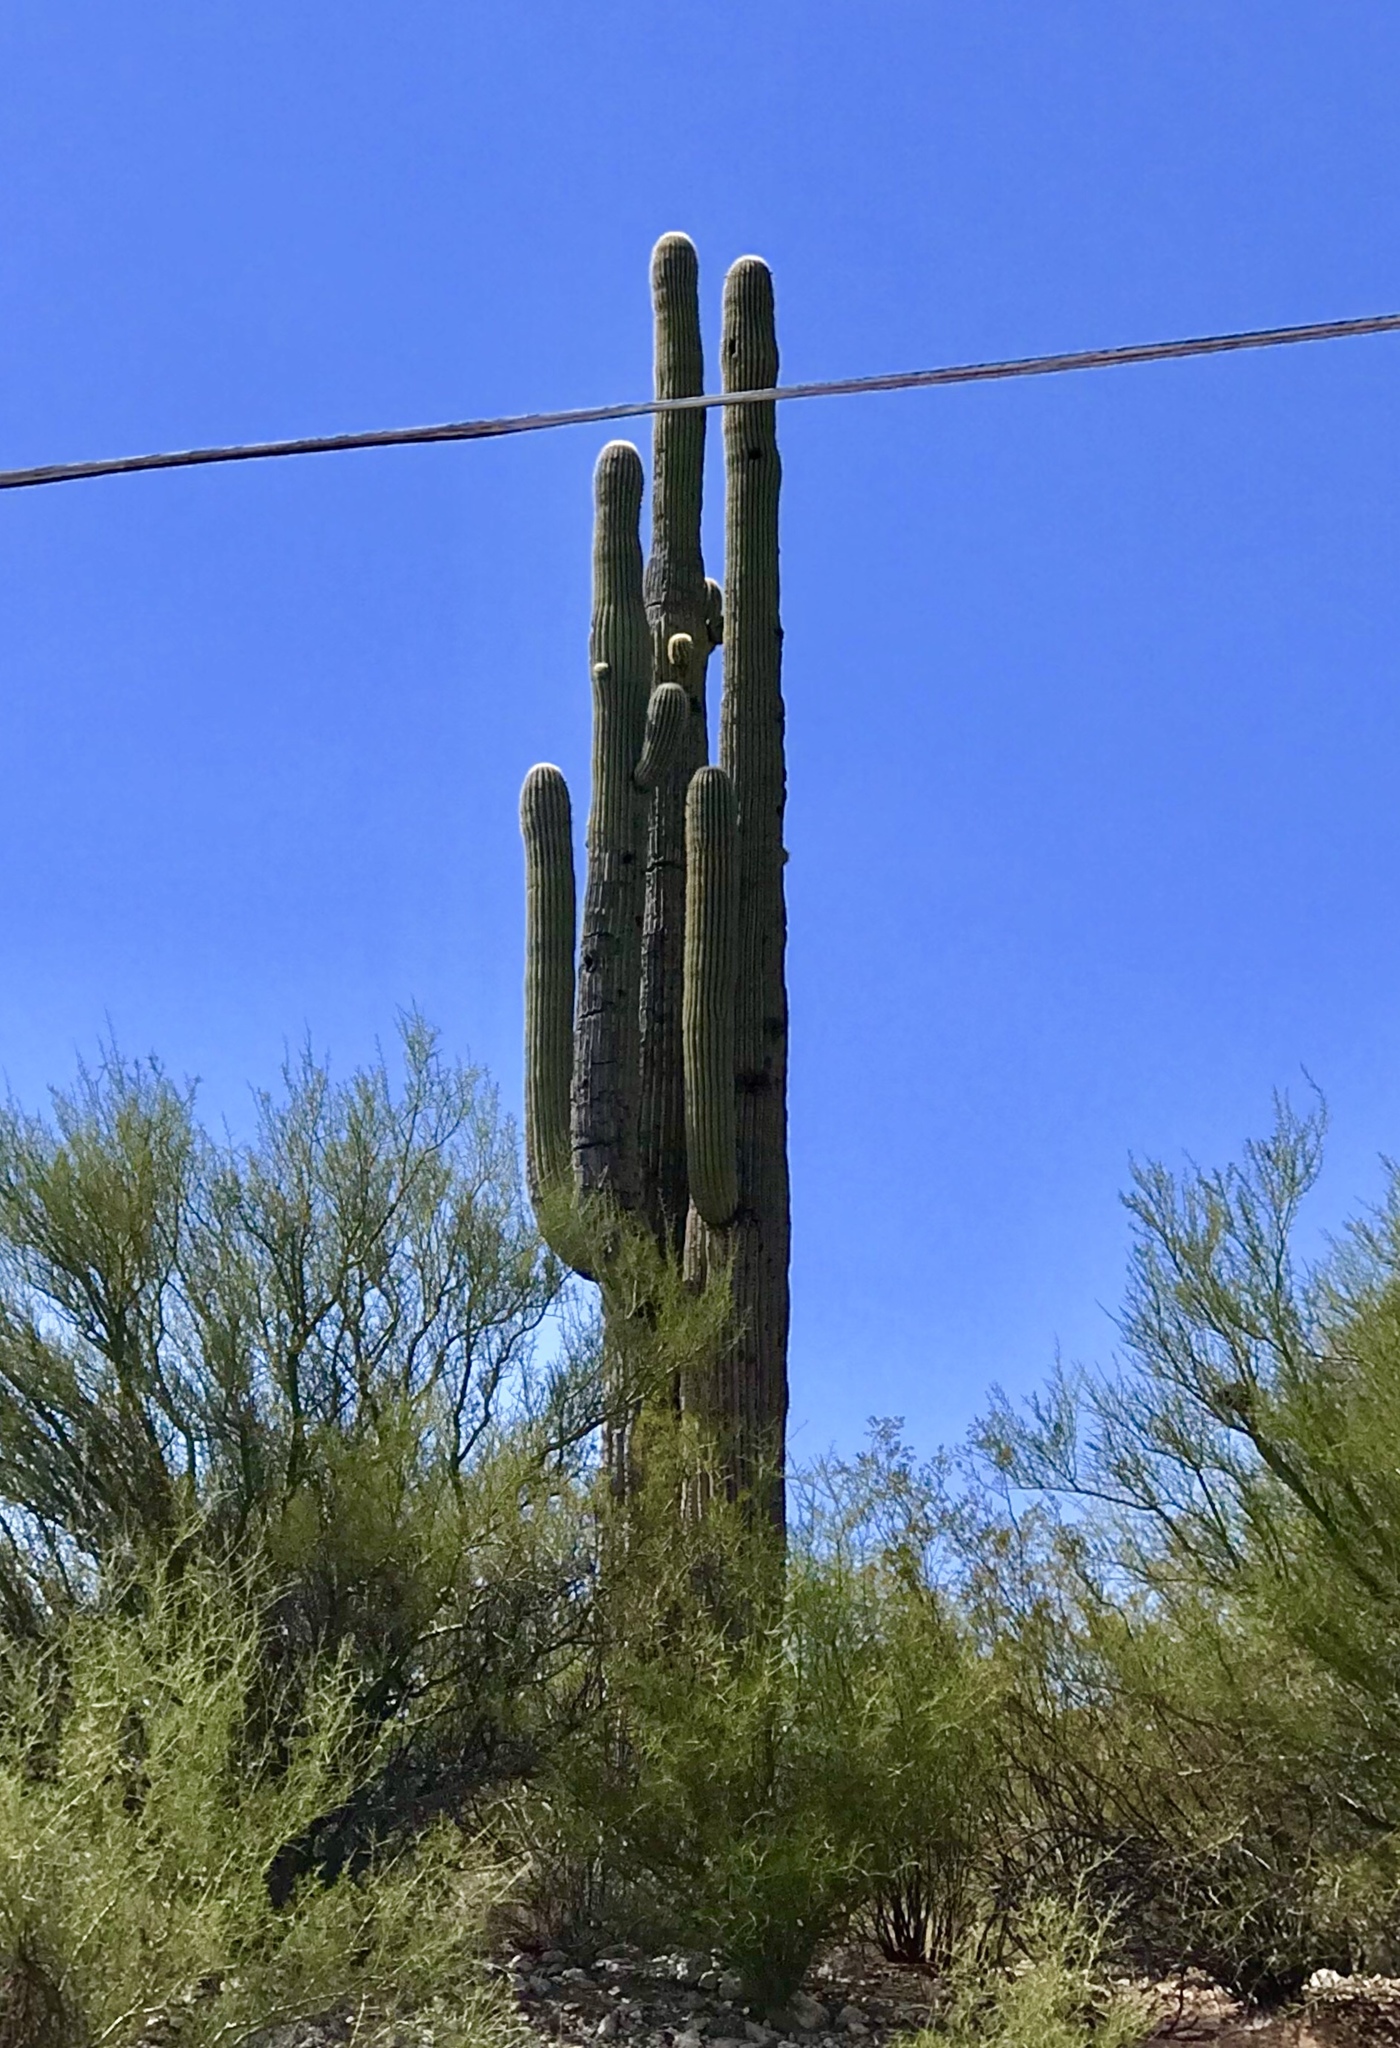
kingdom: Plantae
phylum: Tracheophyta
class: Magnoliopsida
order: Caryophyllales
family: Cactaceae
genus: Carnegiea
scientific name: Carnegiea gigantea
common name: Saguaro
